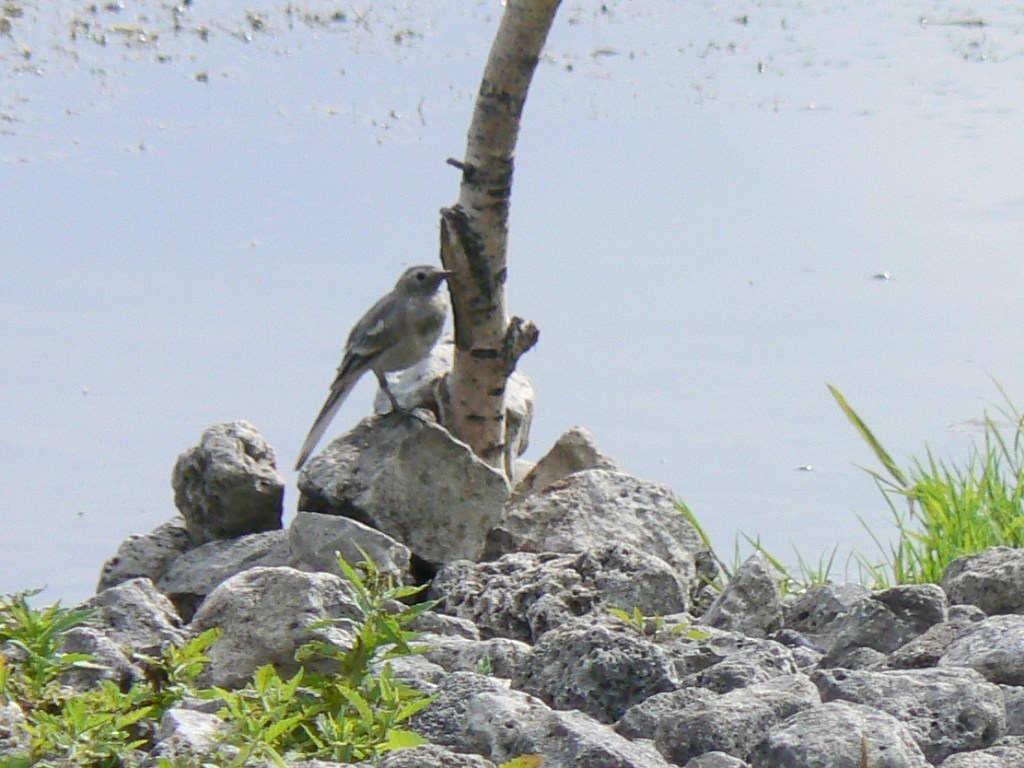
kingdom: Animalia
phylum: Chordata
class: Aves
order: Passeriformes
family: Motacillidae
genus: Motacilla
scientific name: Motacilla alba
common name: White wagtail
